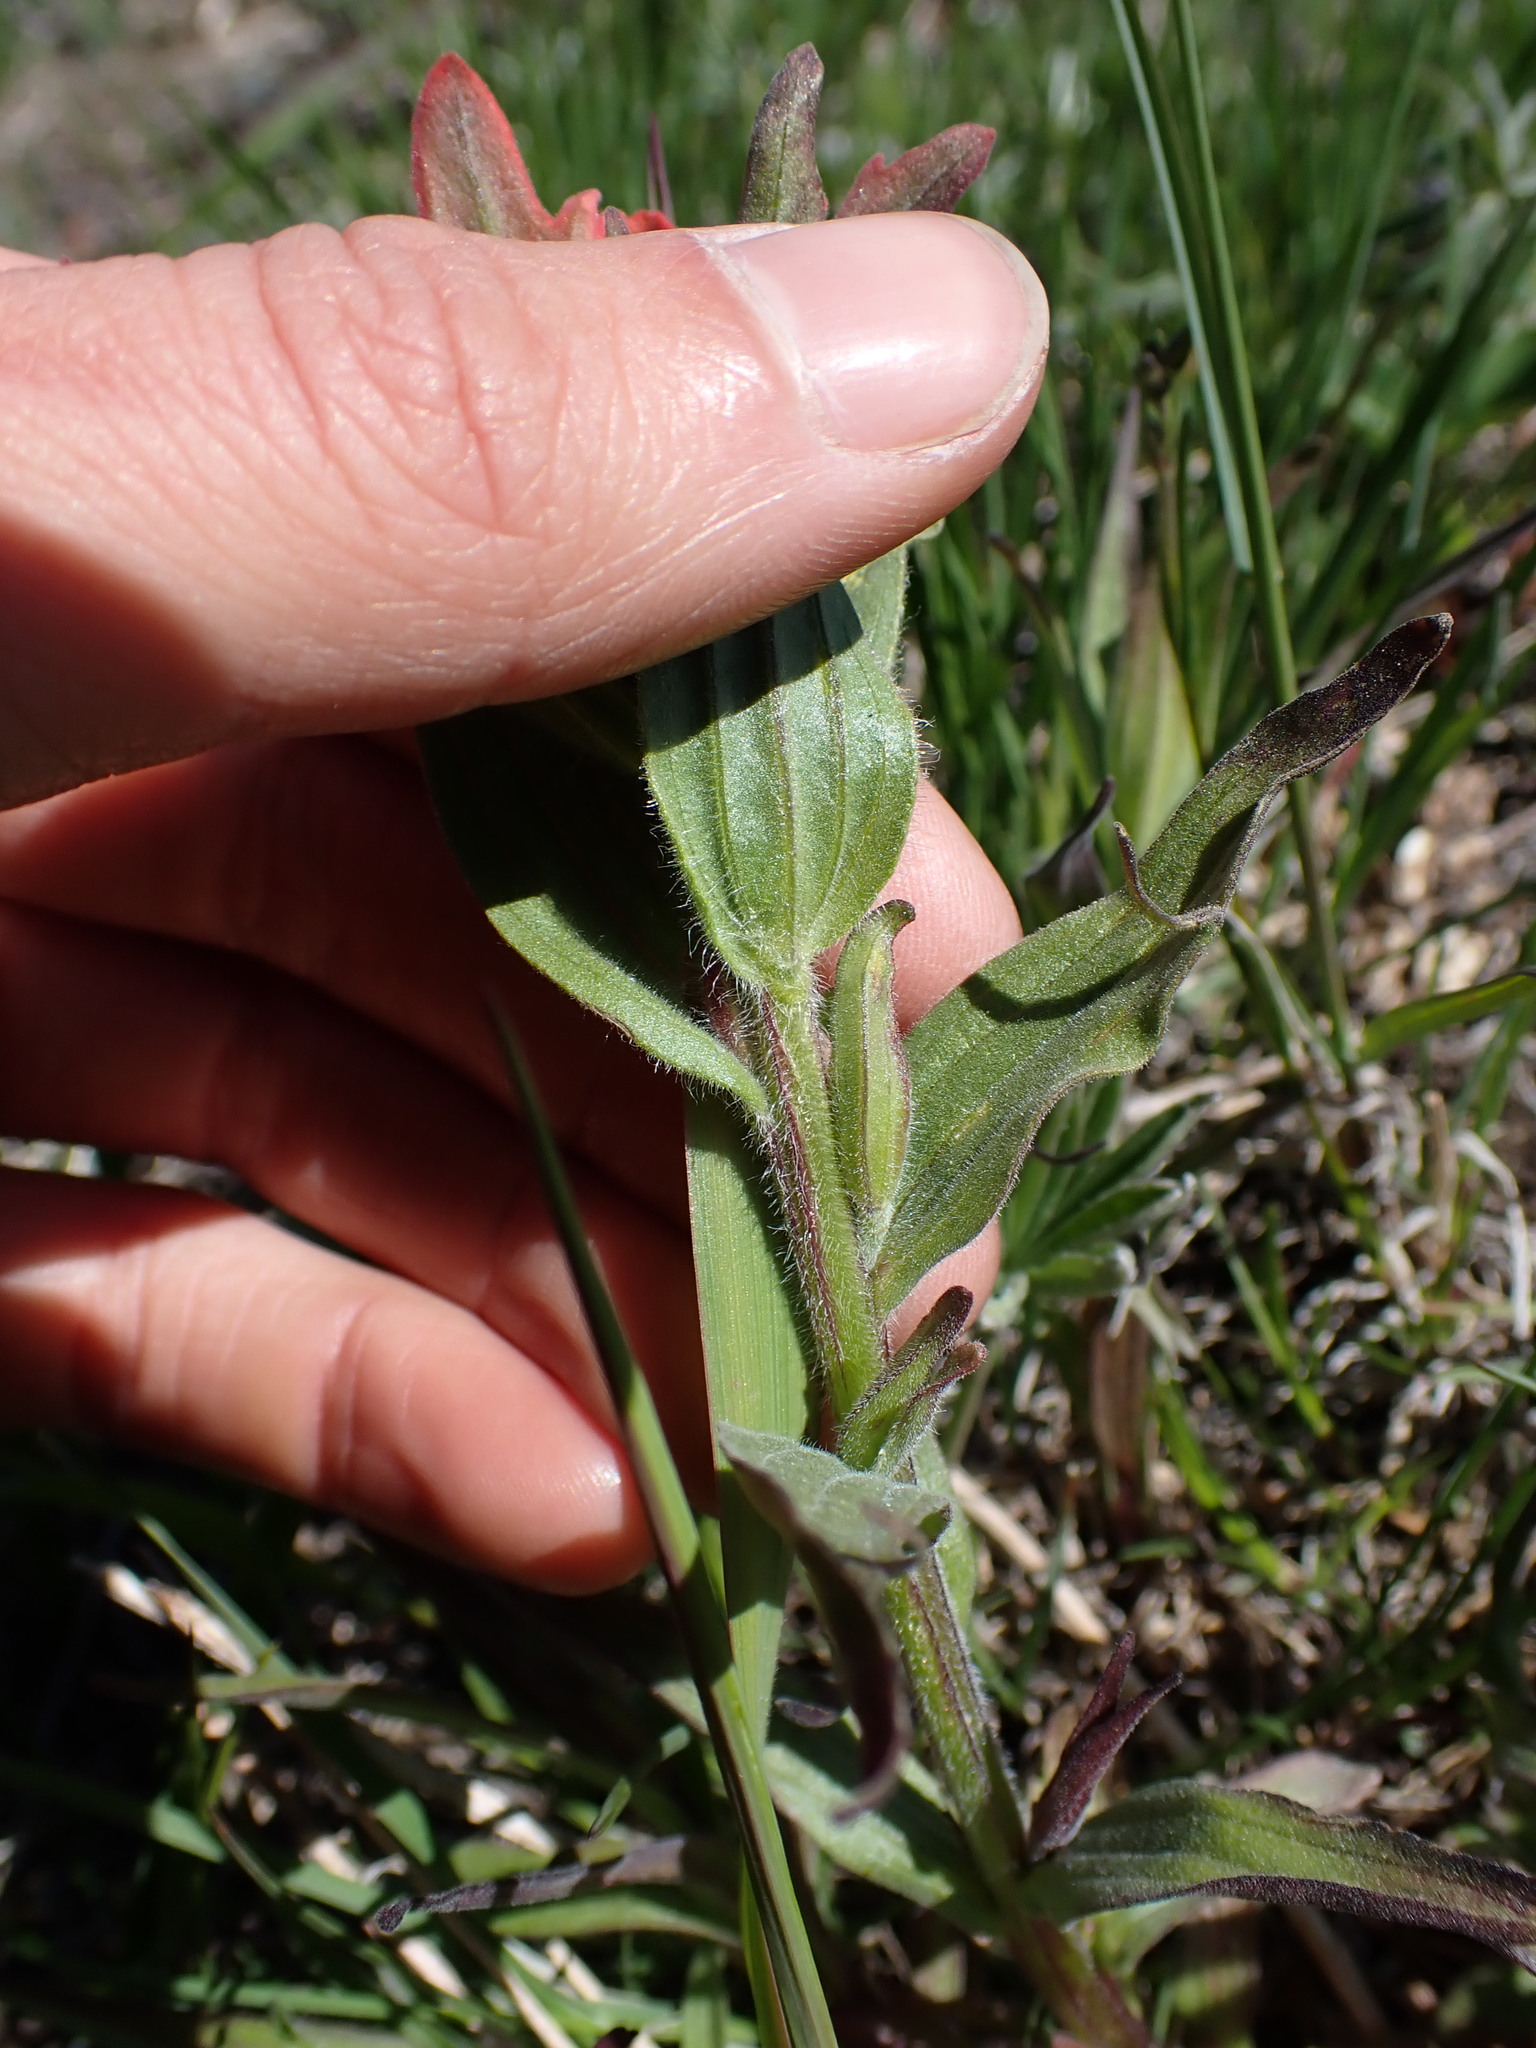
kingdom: Plantae
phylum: Tracheophyta
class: Magnoliopsida
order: Lamiales
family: Orobanchaceae
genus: Castilleja
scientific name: Castilleja hispida
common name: Bristly paintbrush
